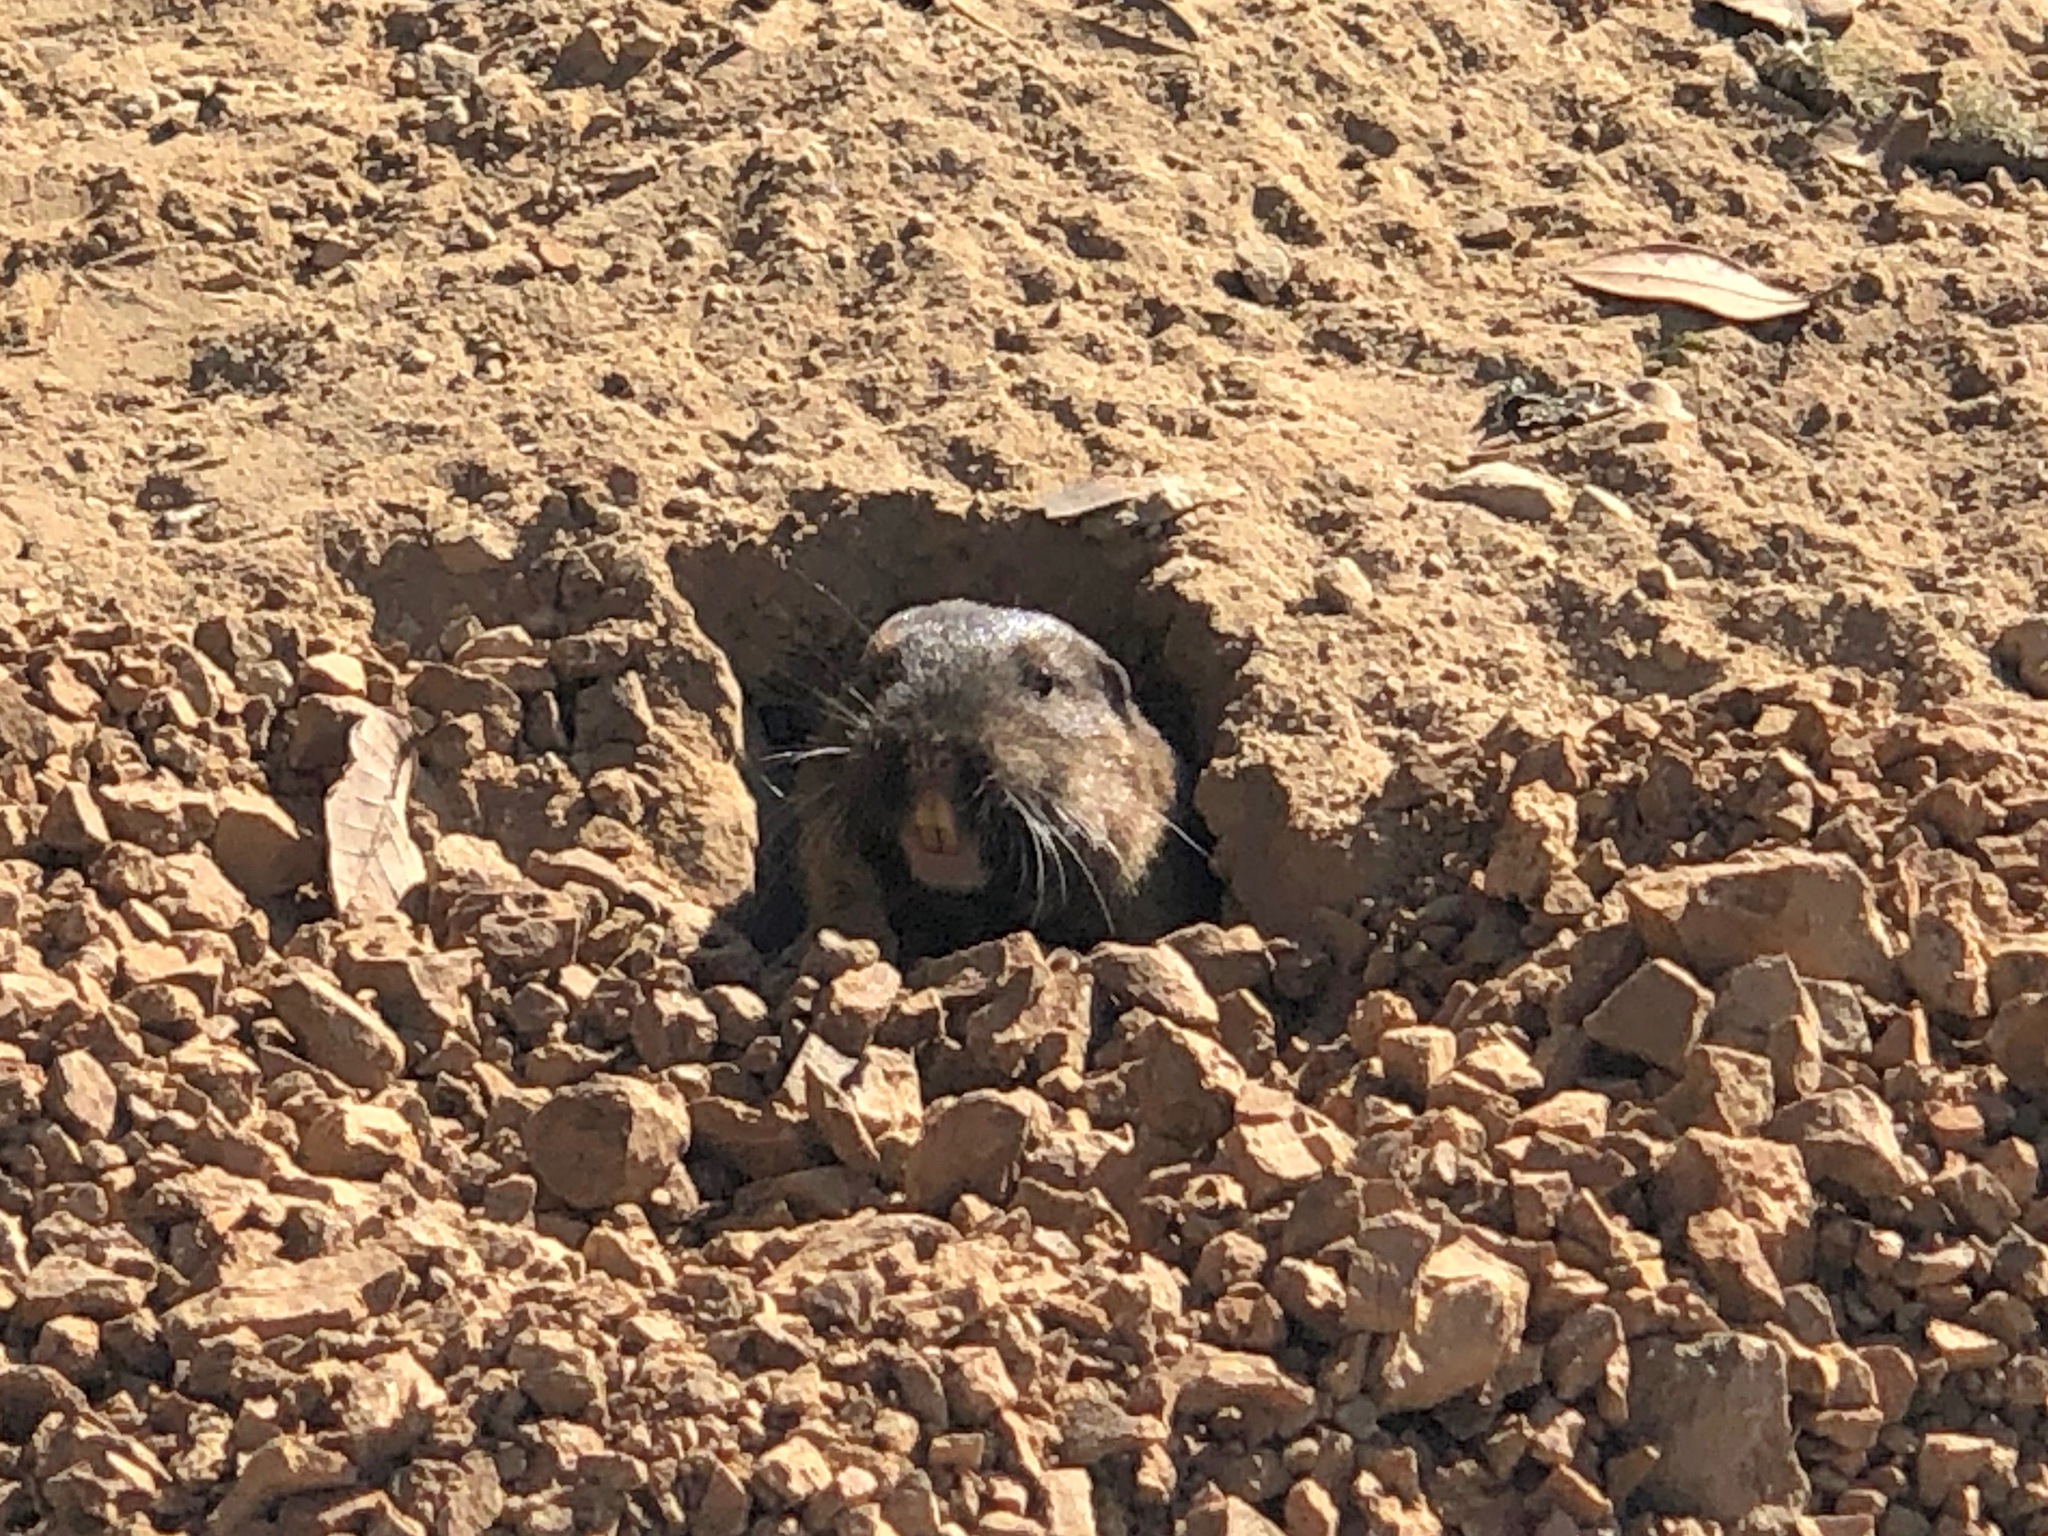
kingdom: Animalia
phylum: Chordata
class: Mammalia
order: Rodentia
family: Geomyidae
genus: Thomomys
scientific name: Thomomys bottae
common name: Botta's pocket gopher
